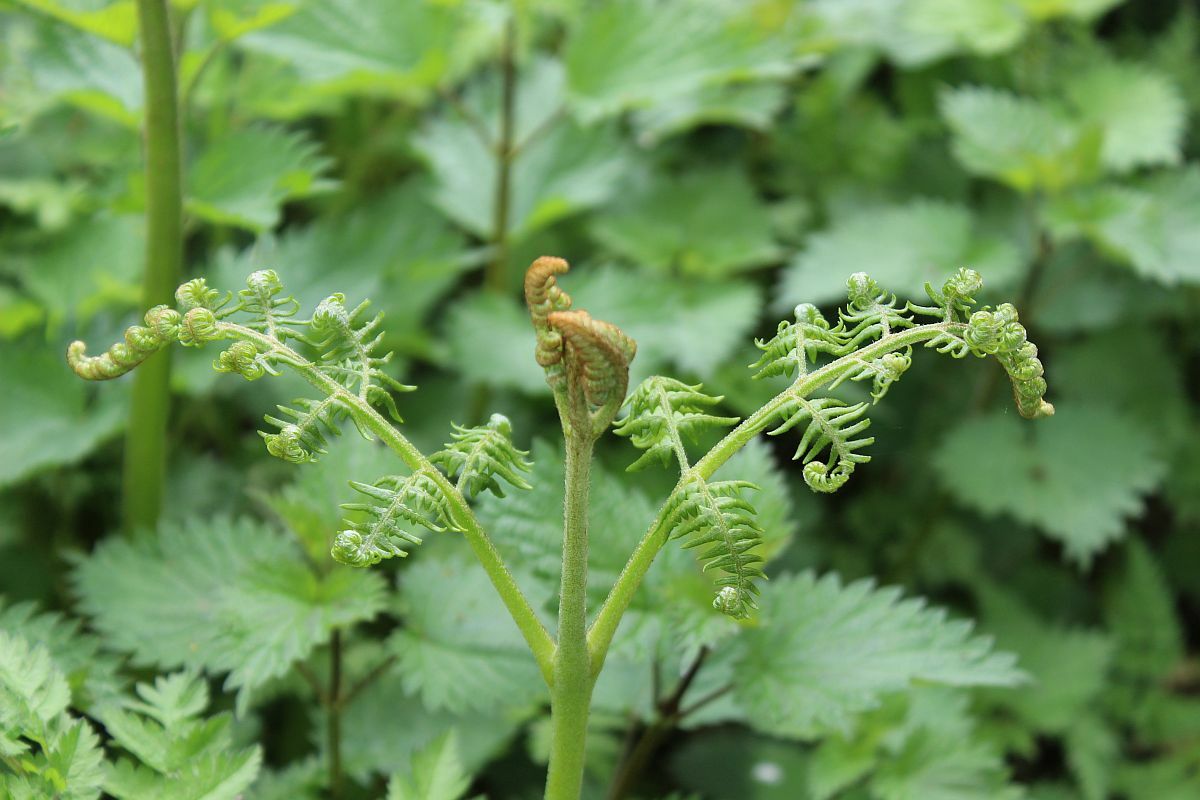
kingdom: Plantae
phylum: Tracheophyta
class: Polypodiopsida
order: Polypodiales
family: Dennstaedtiaceae
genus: Pteridium
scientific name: Pteridium aquilinum
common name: Bracken
